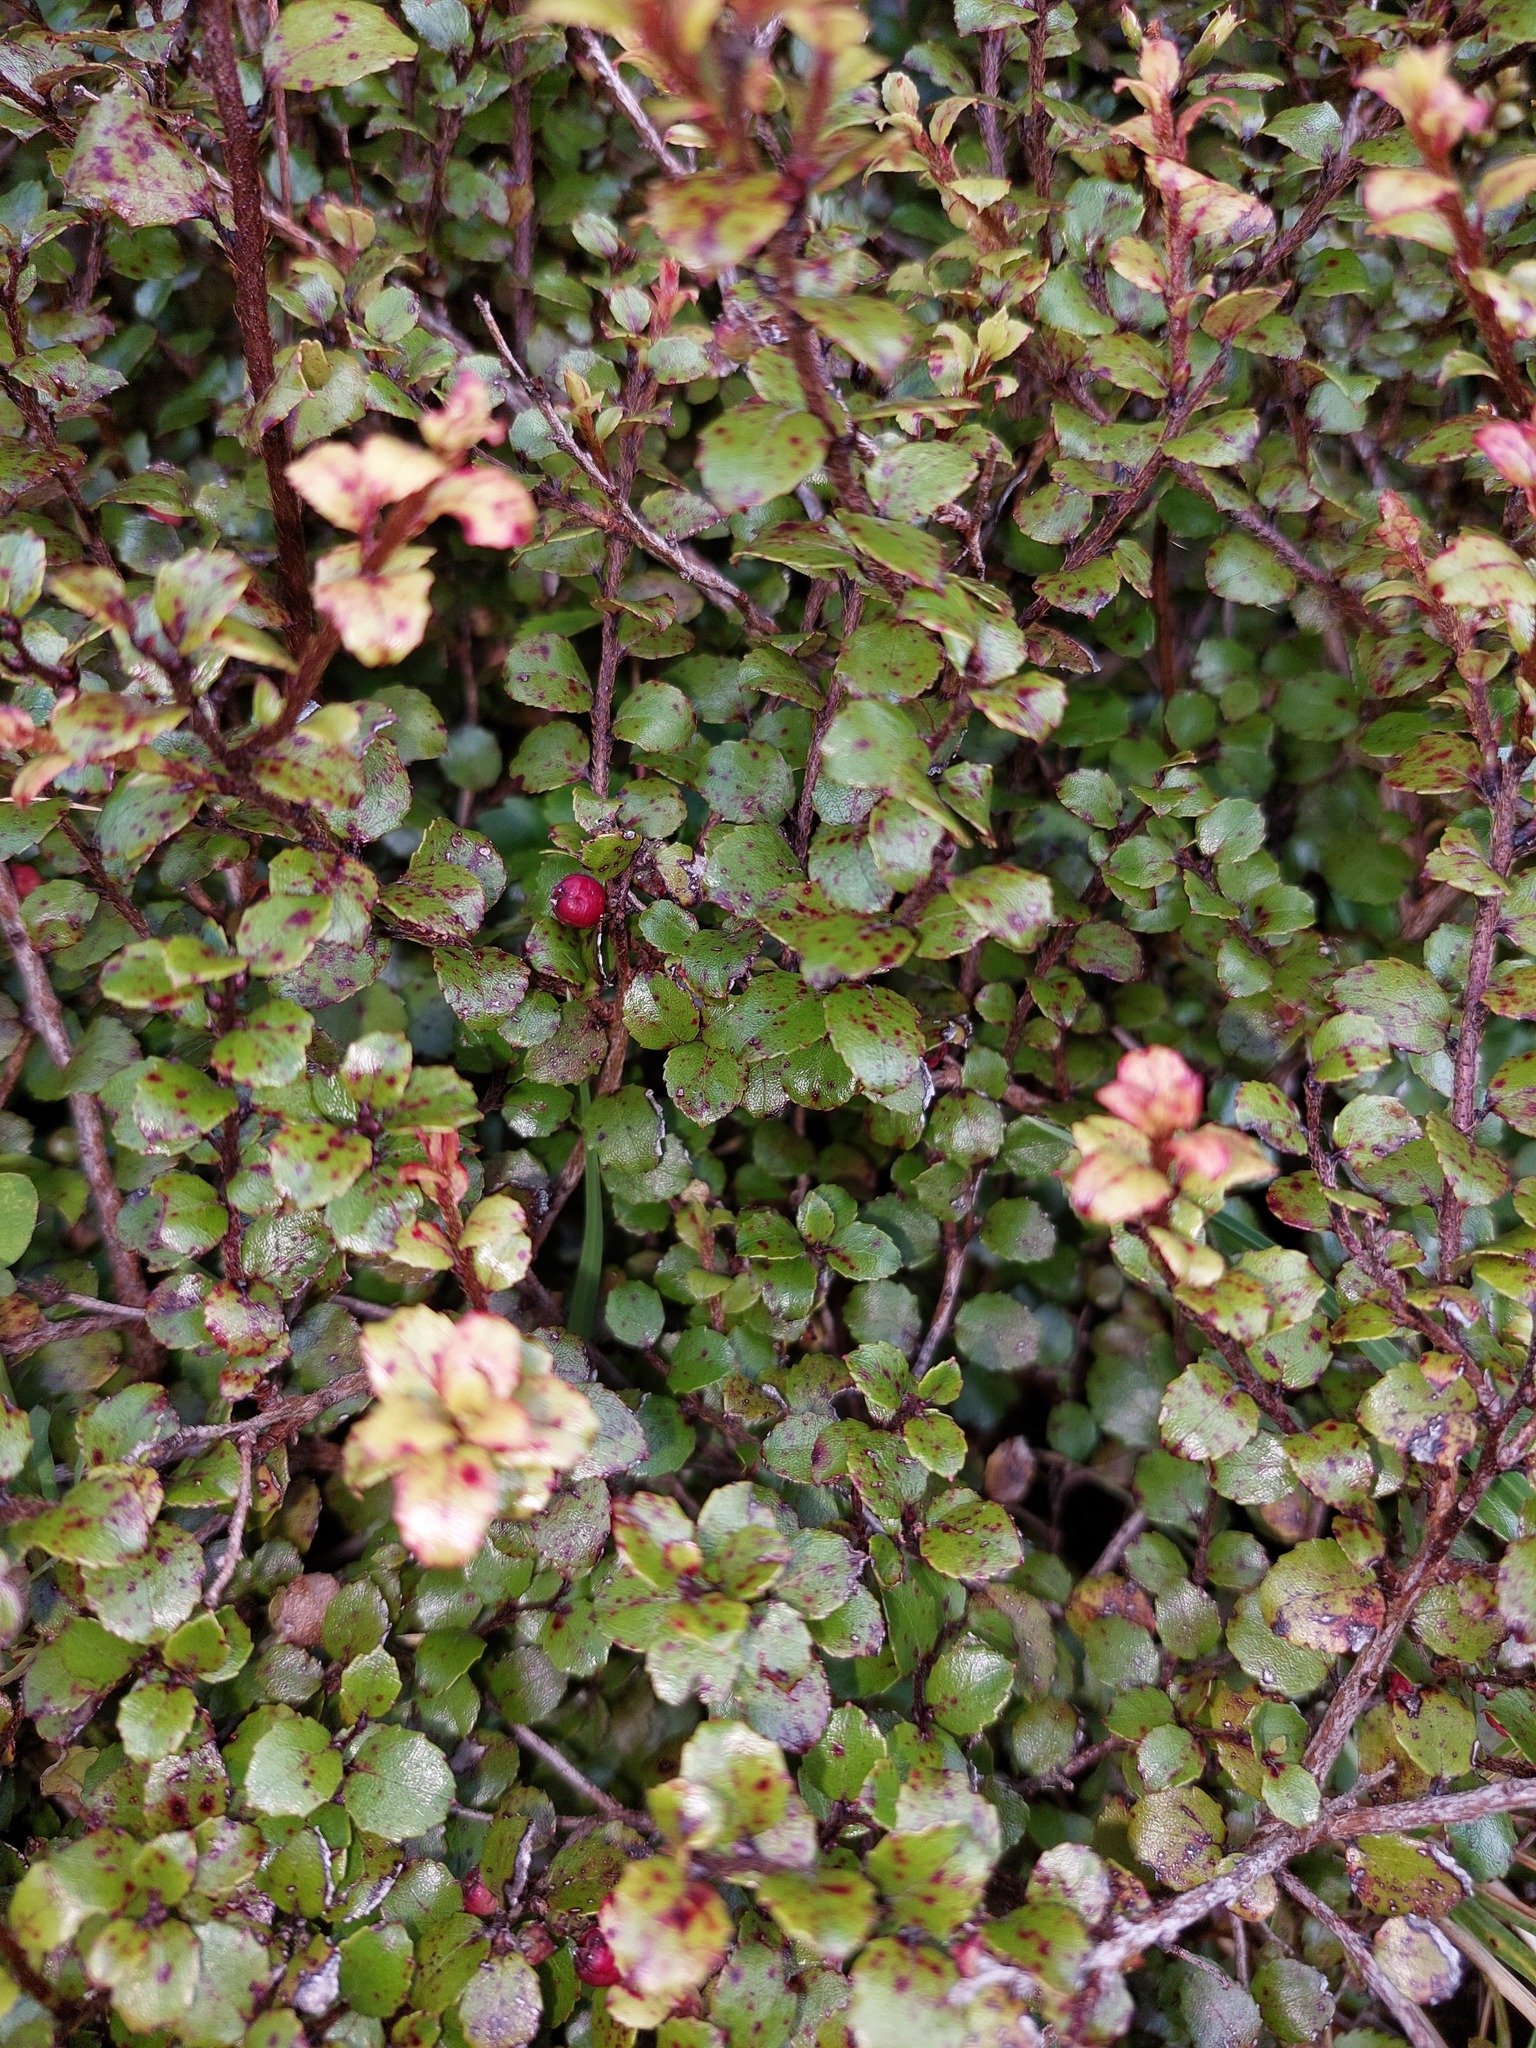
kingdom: Plantae
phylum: Tracheophyta
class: Magnoliopsida
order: Ericales
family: Ericaceae
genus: Gaultheria
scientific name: Gaultheria antipoda
